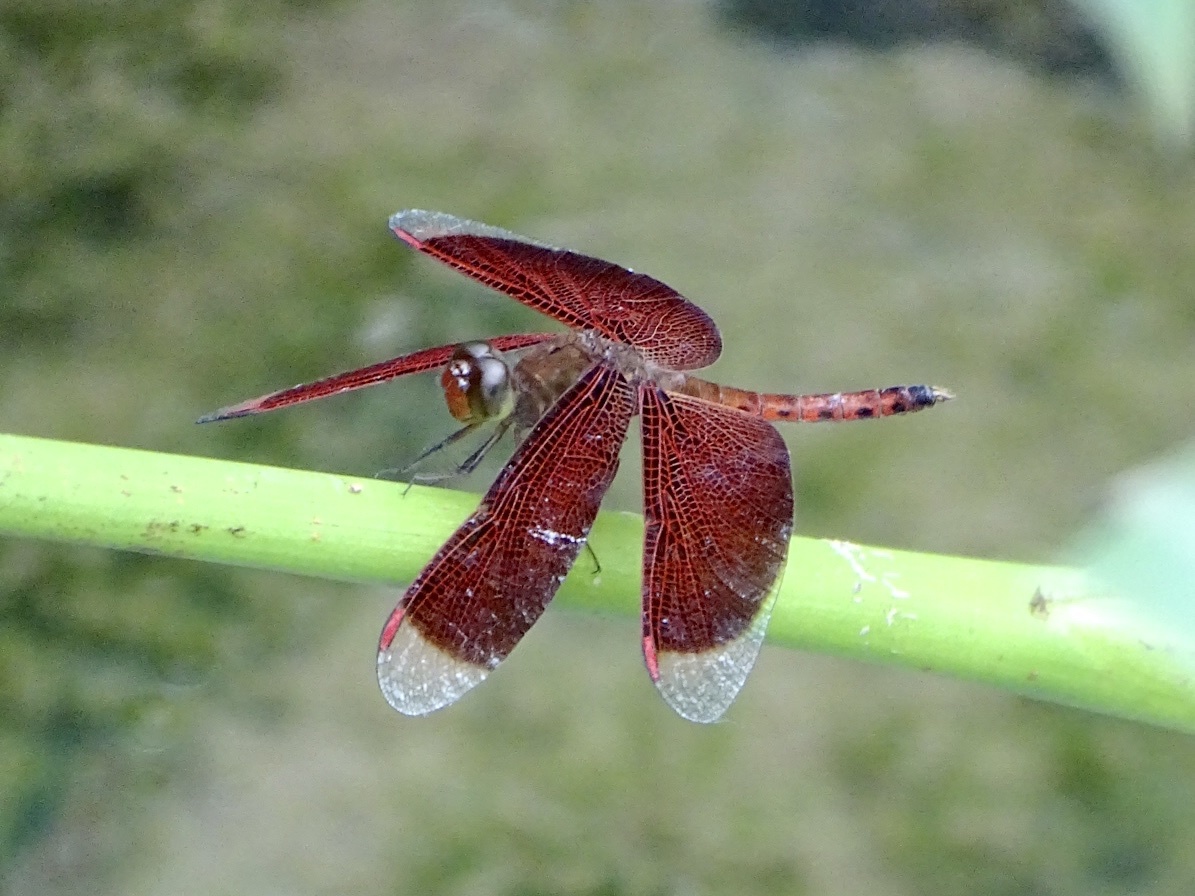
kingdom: Animalia
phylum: Arthropoda
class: Insecta
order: Odonata
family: Libellulidae
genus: Neurothemis
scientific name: Neurothemis fluctuans
